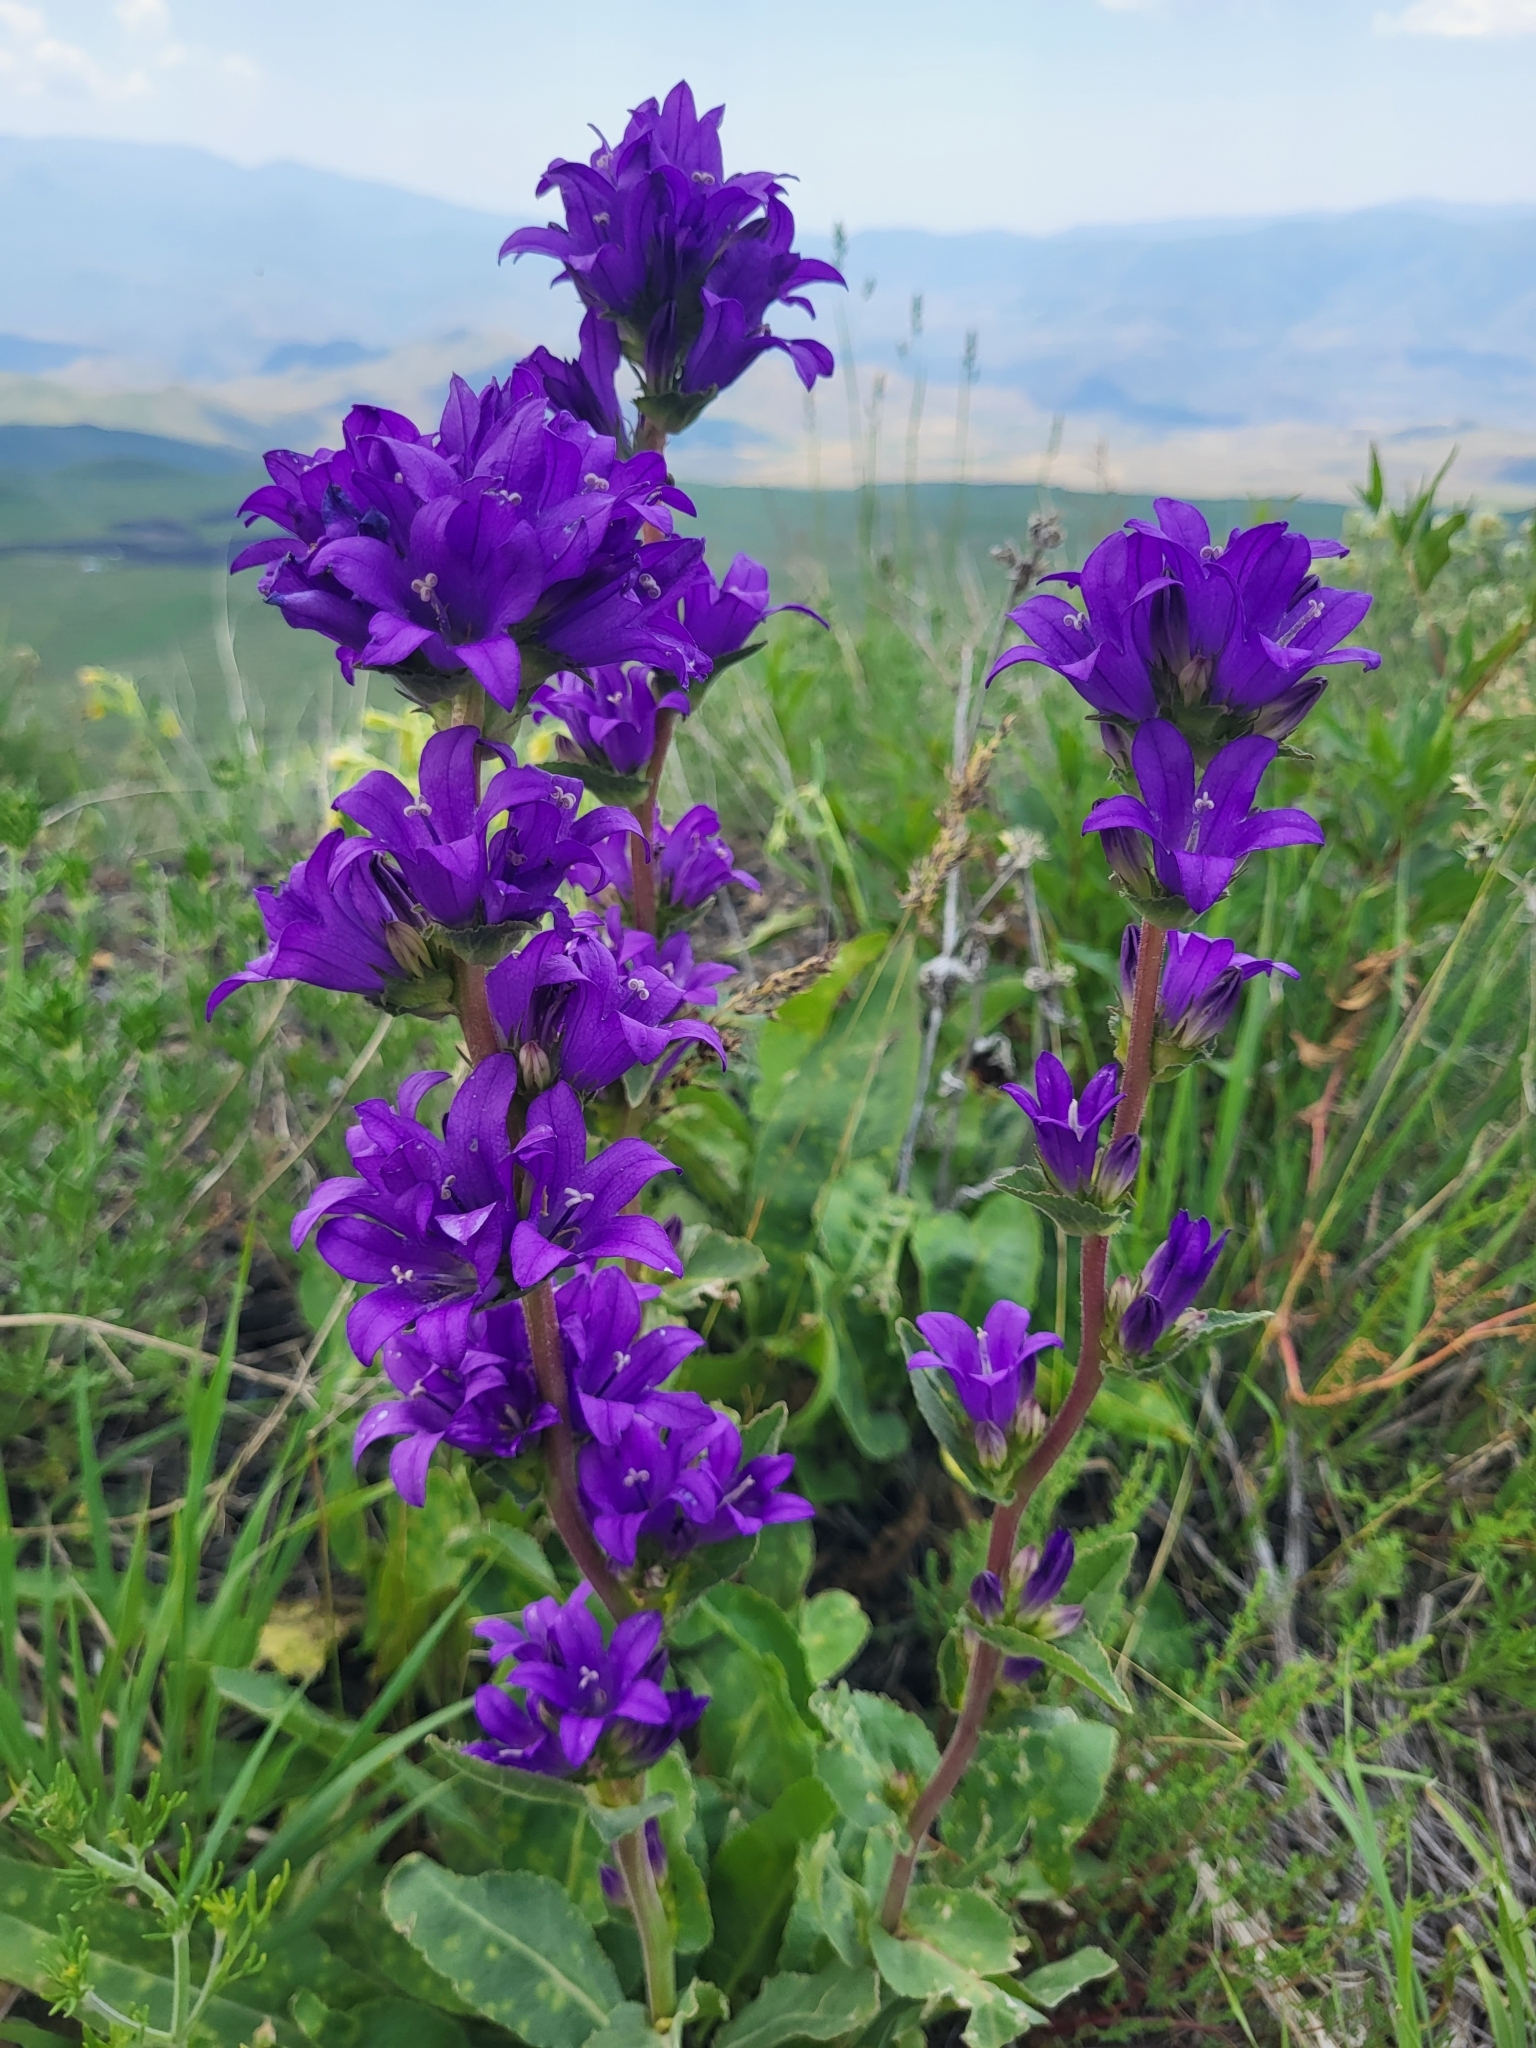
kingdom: Plantae
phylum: Tracheophyta
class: Magnoliopsida
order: Asterales
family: Campanulaceae
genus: Campanula
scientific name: Campanula glomerata
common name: Clustered bellflower
